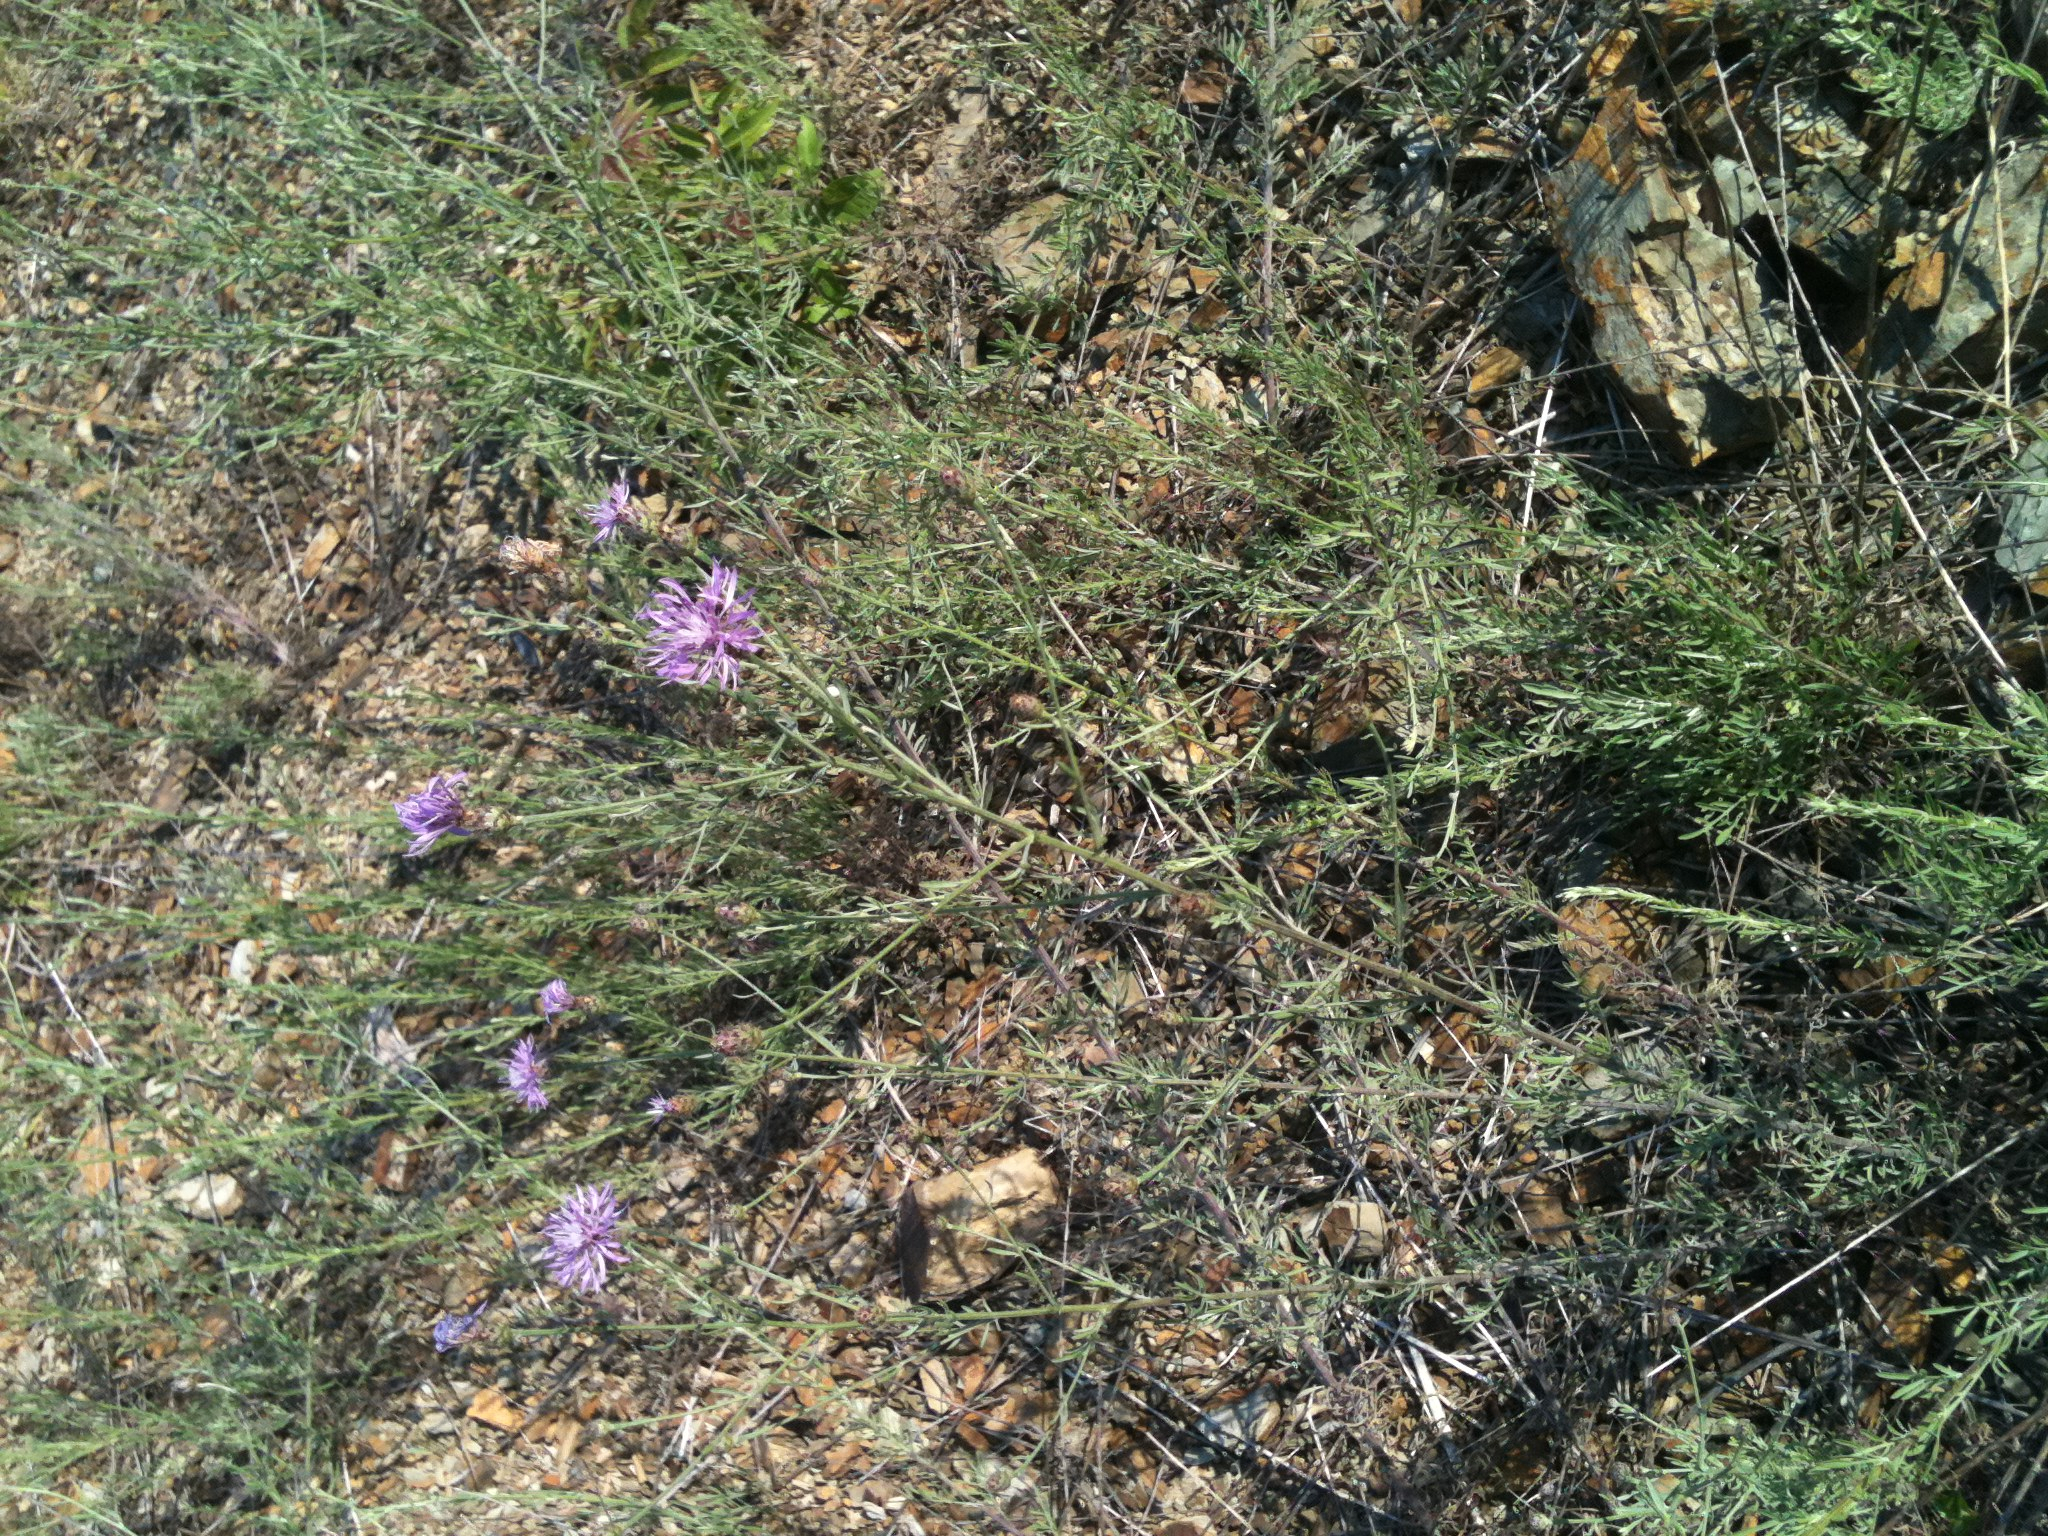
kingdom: Plantae
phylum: Tracheophyta
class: Magnoliopsida
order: Asterales
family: Asteraceae
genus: Centaurea
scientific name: Centaurea stoebe
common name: Spotted knapweed
